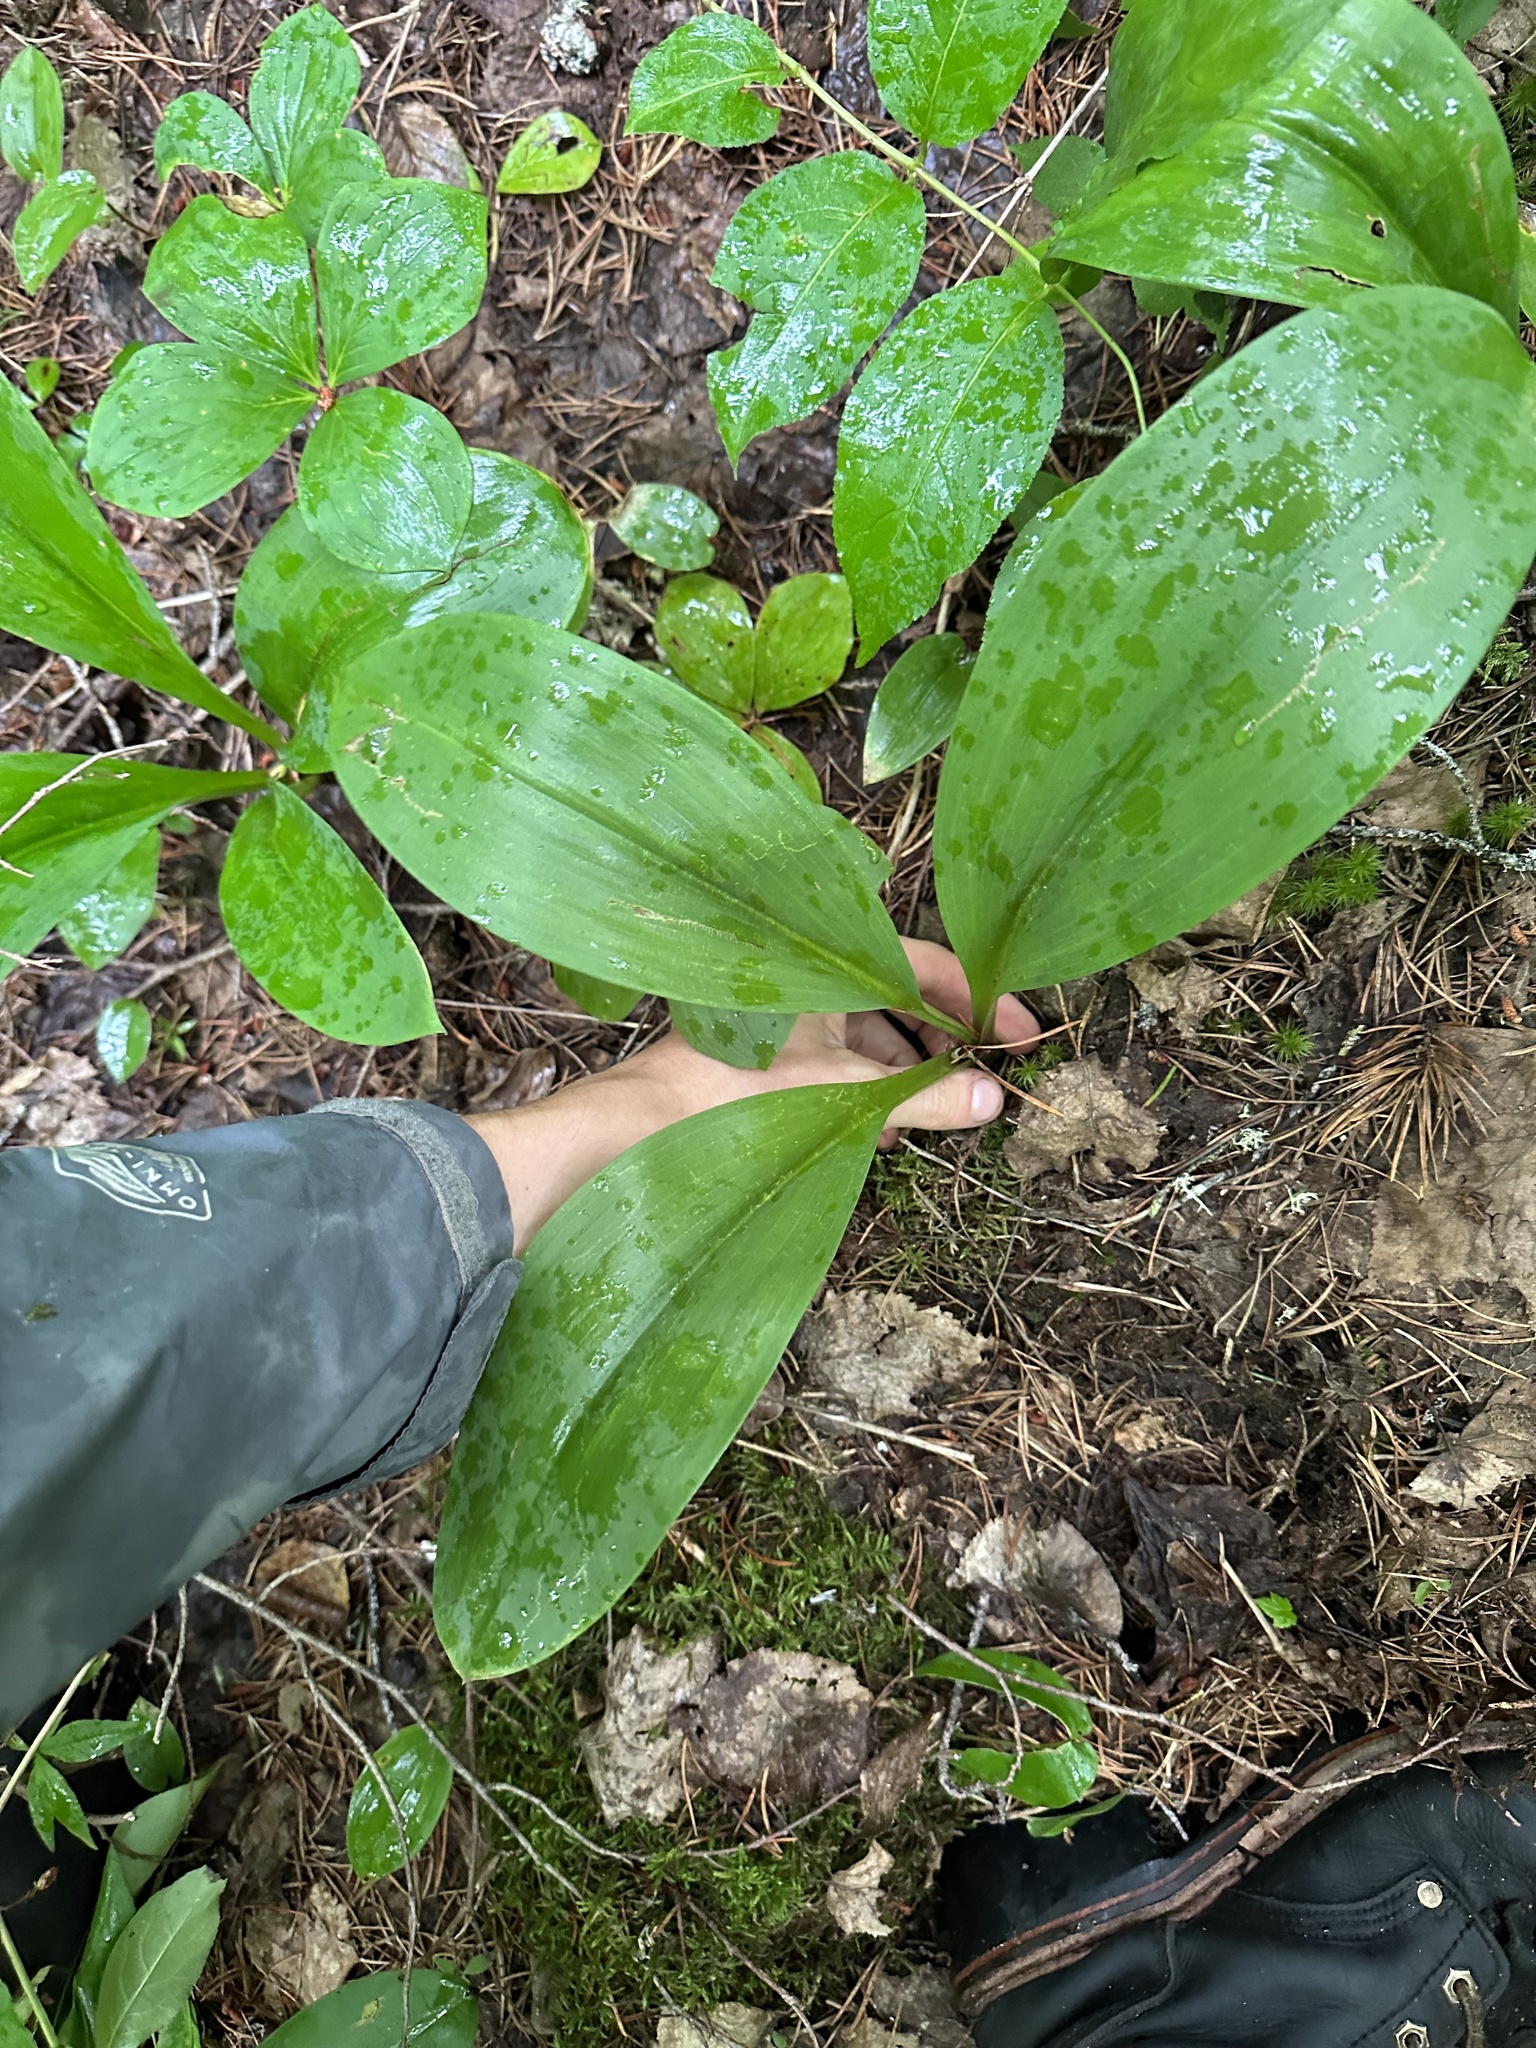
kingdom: Plantae
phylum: Tracheophyta
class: Liliopsida
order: Liliales
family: Liliaceae
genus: Clintonia
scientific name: Clintonia borealis
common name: Yellow clintonia
